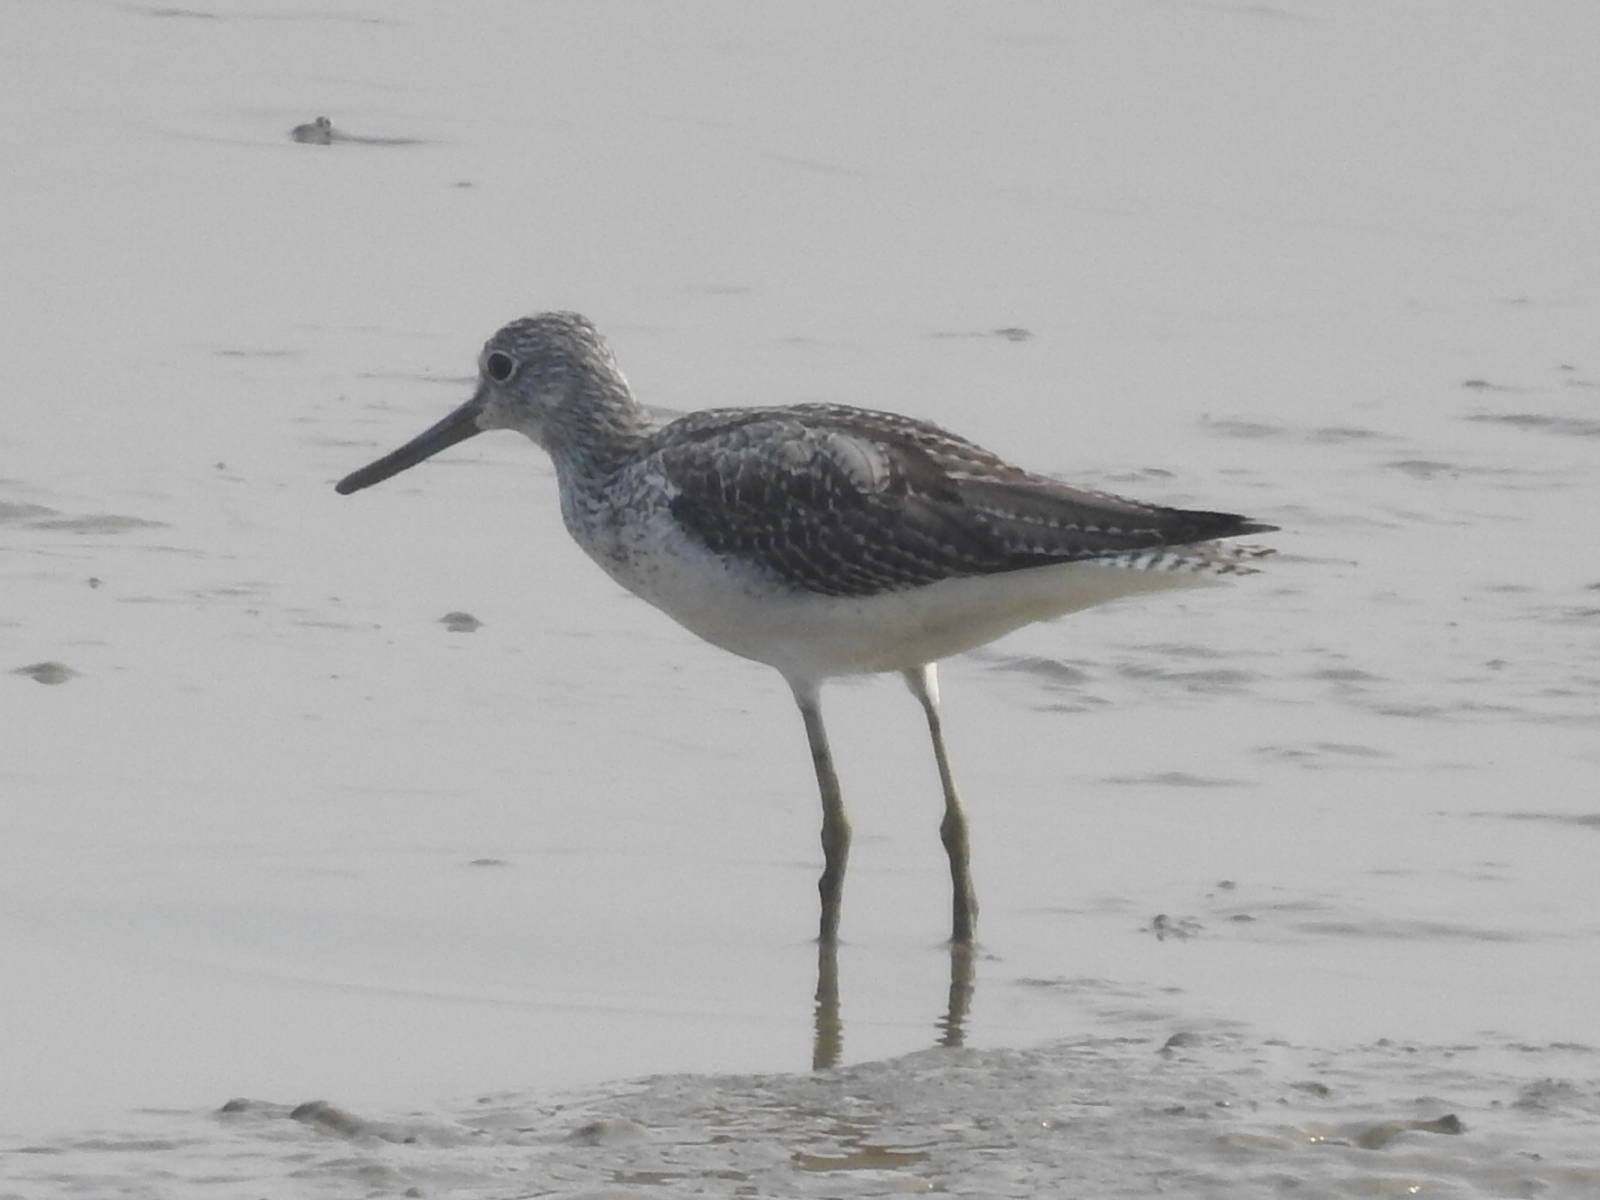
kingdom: Animalia
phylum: Chordata
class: Aves
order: Charadriiformes
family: Scolopacidae
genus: Tringa
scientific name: Tringa nebularia
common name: Common greenshank
